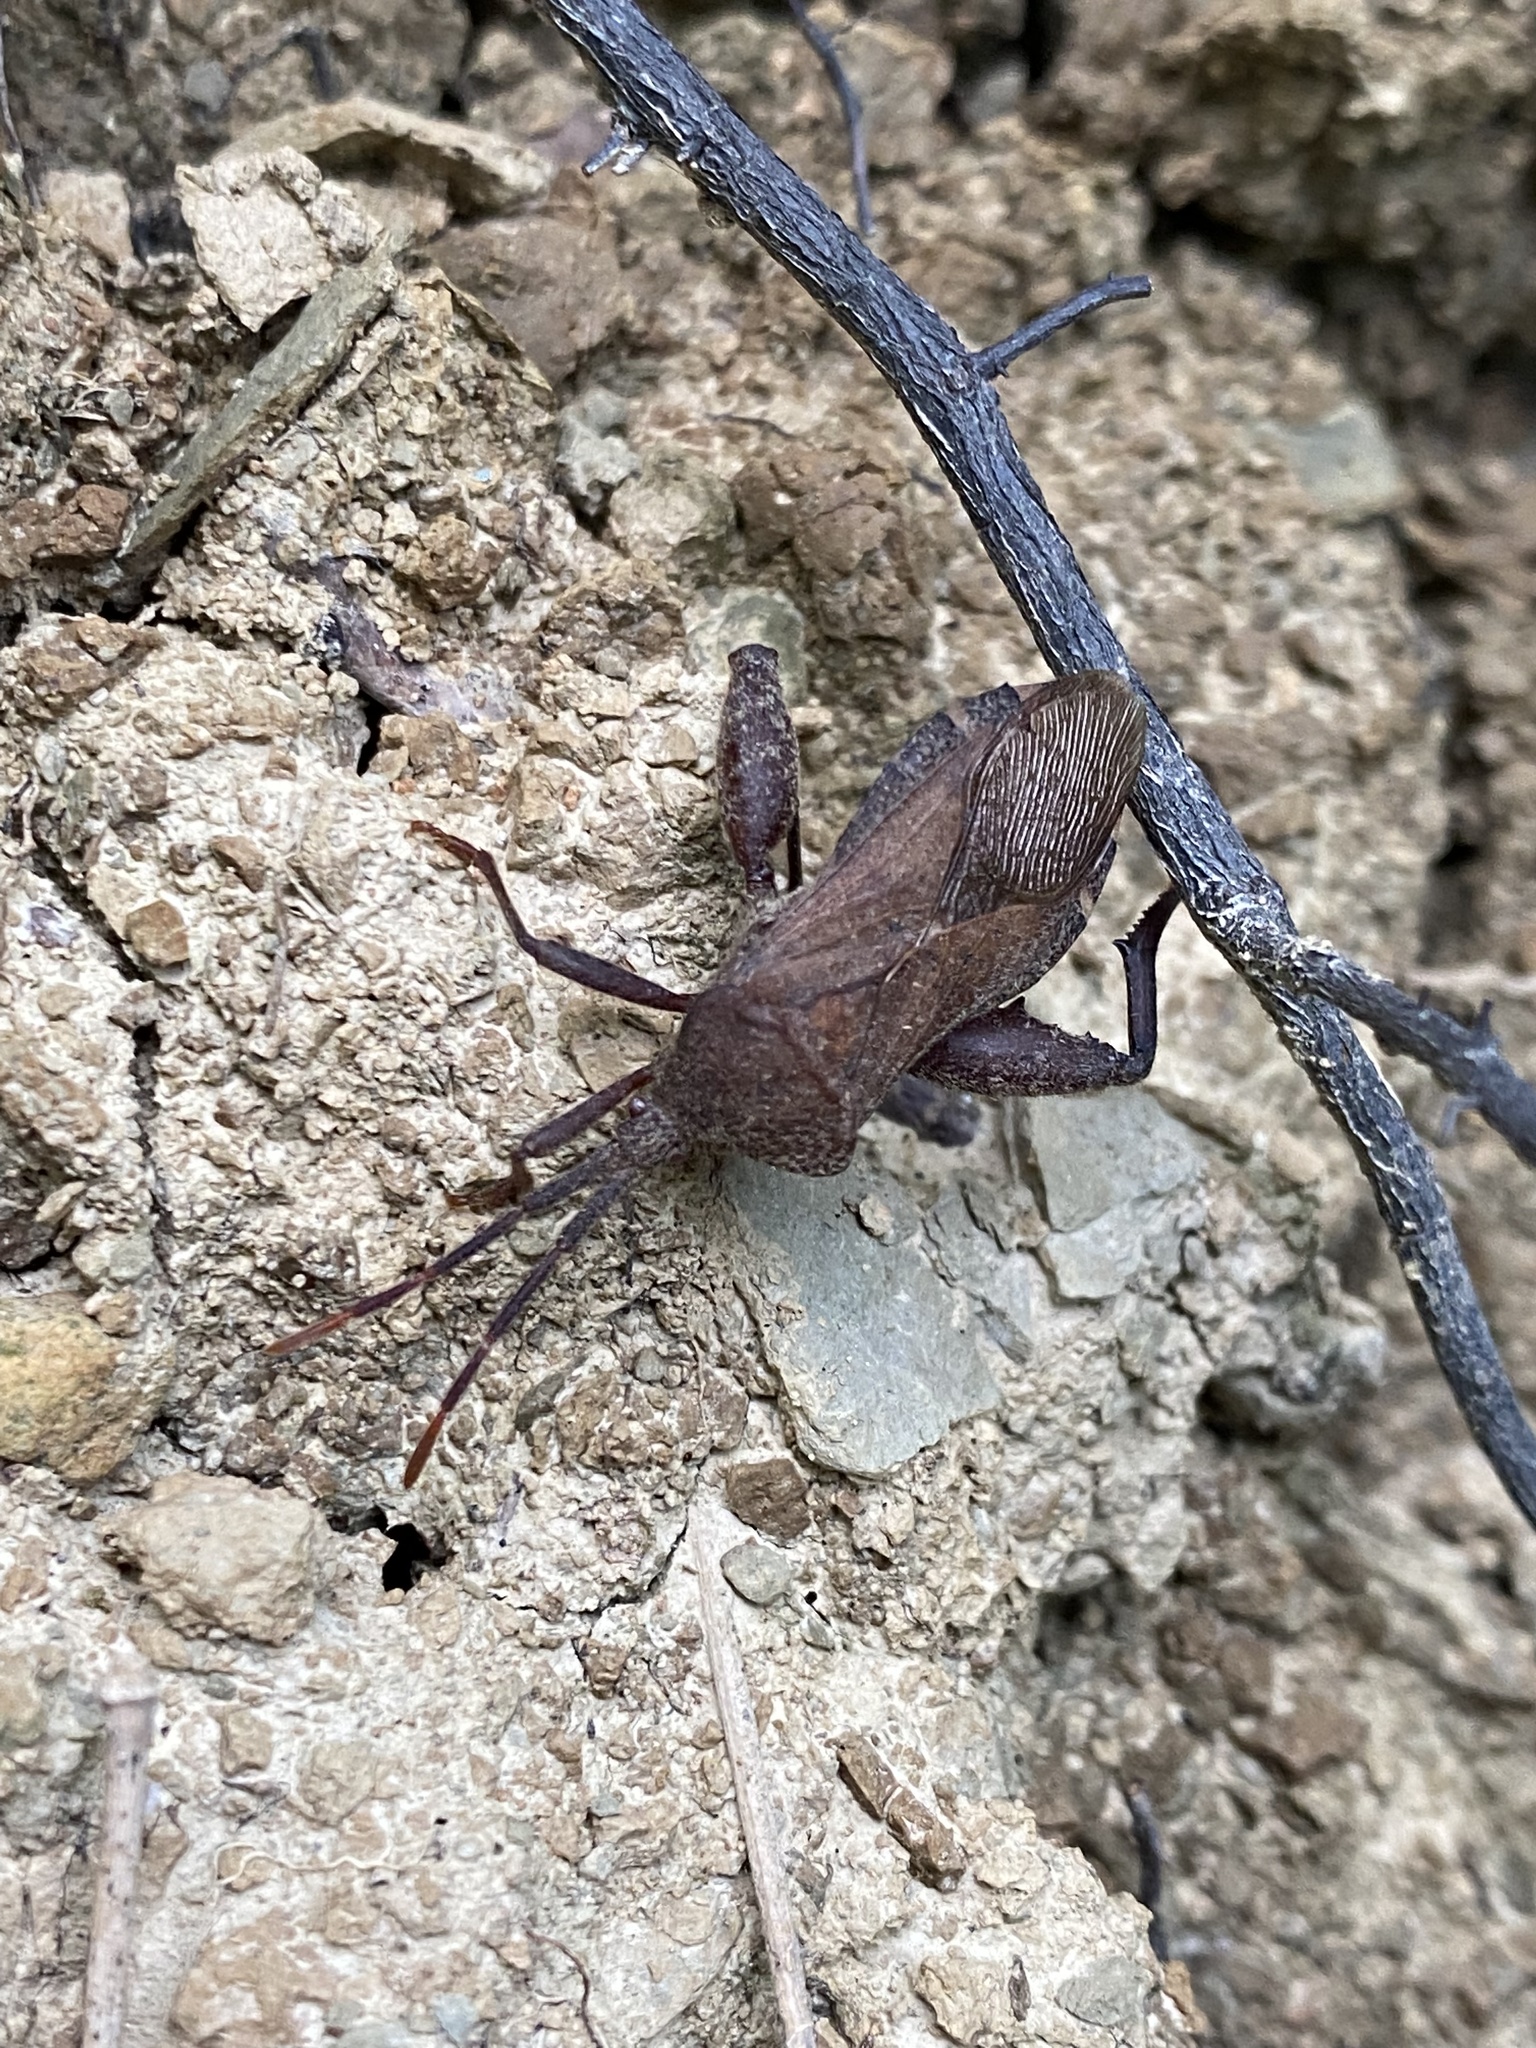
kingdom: Animalia
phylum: Arthropoda
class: Insecta
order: Hemiptera
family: Coreidae
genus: Piezogaster
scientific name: Piezogaster calcarator
